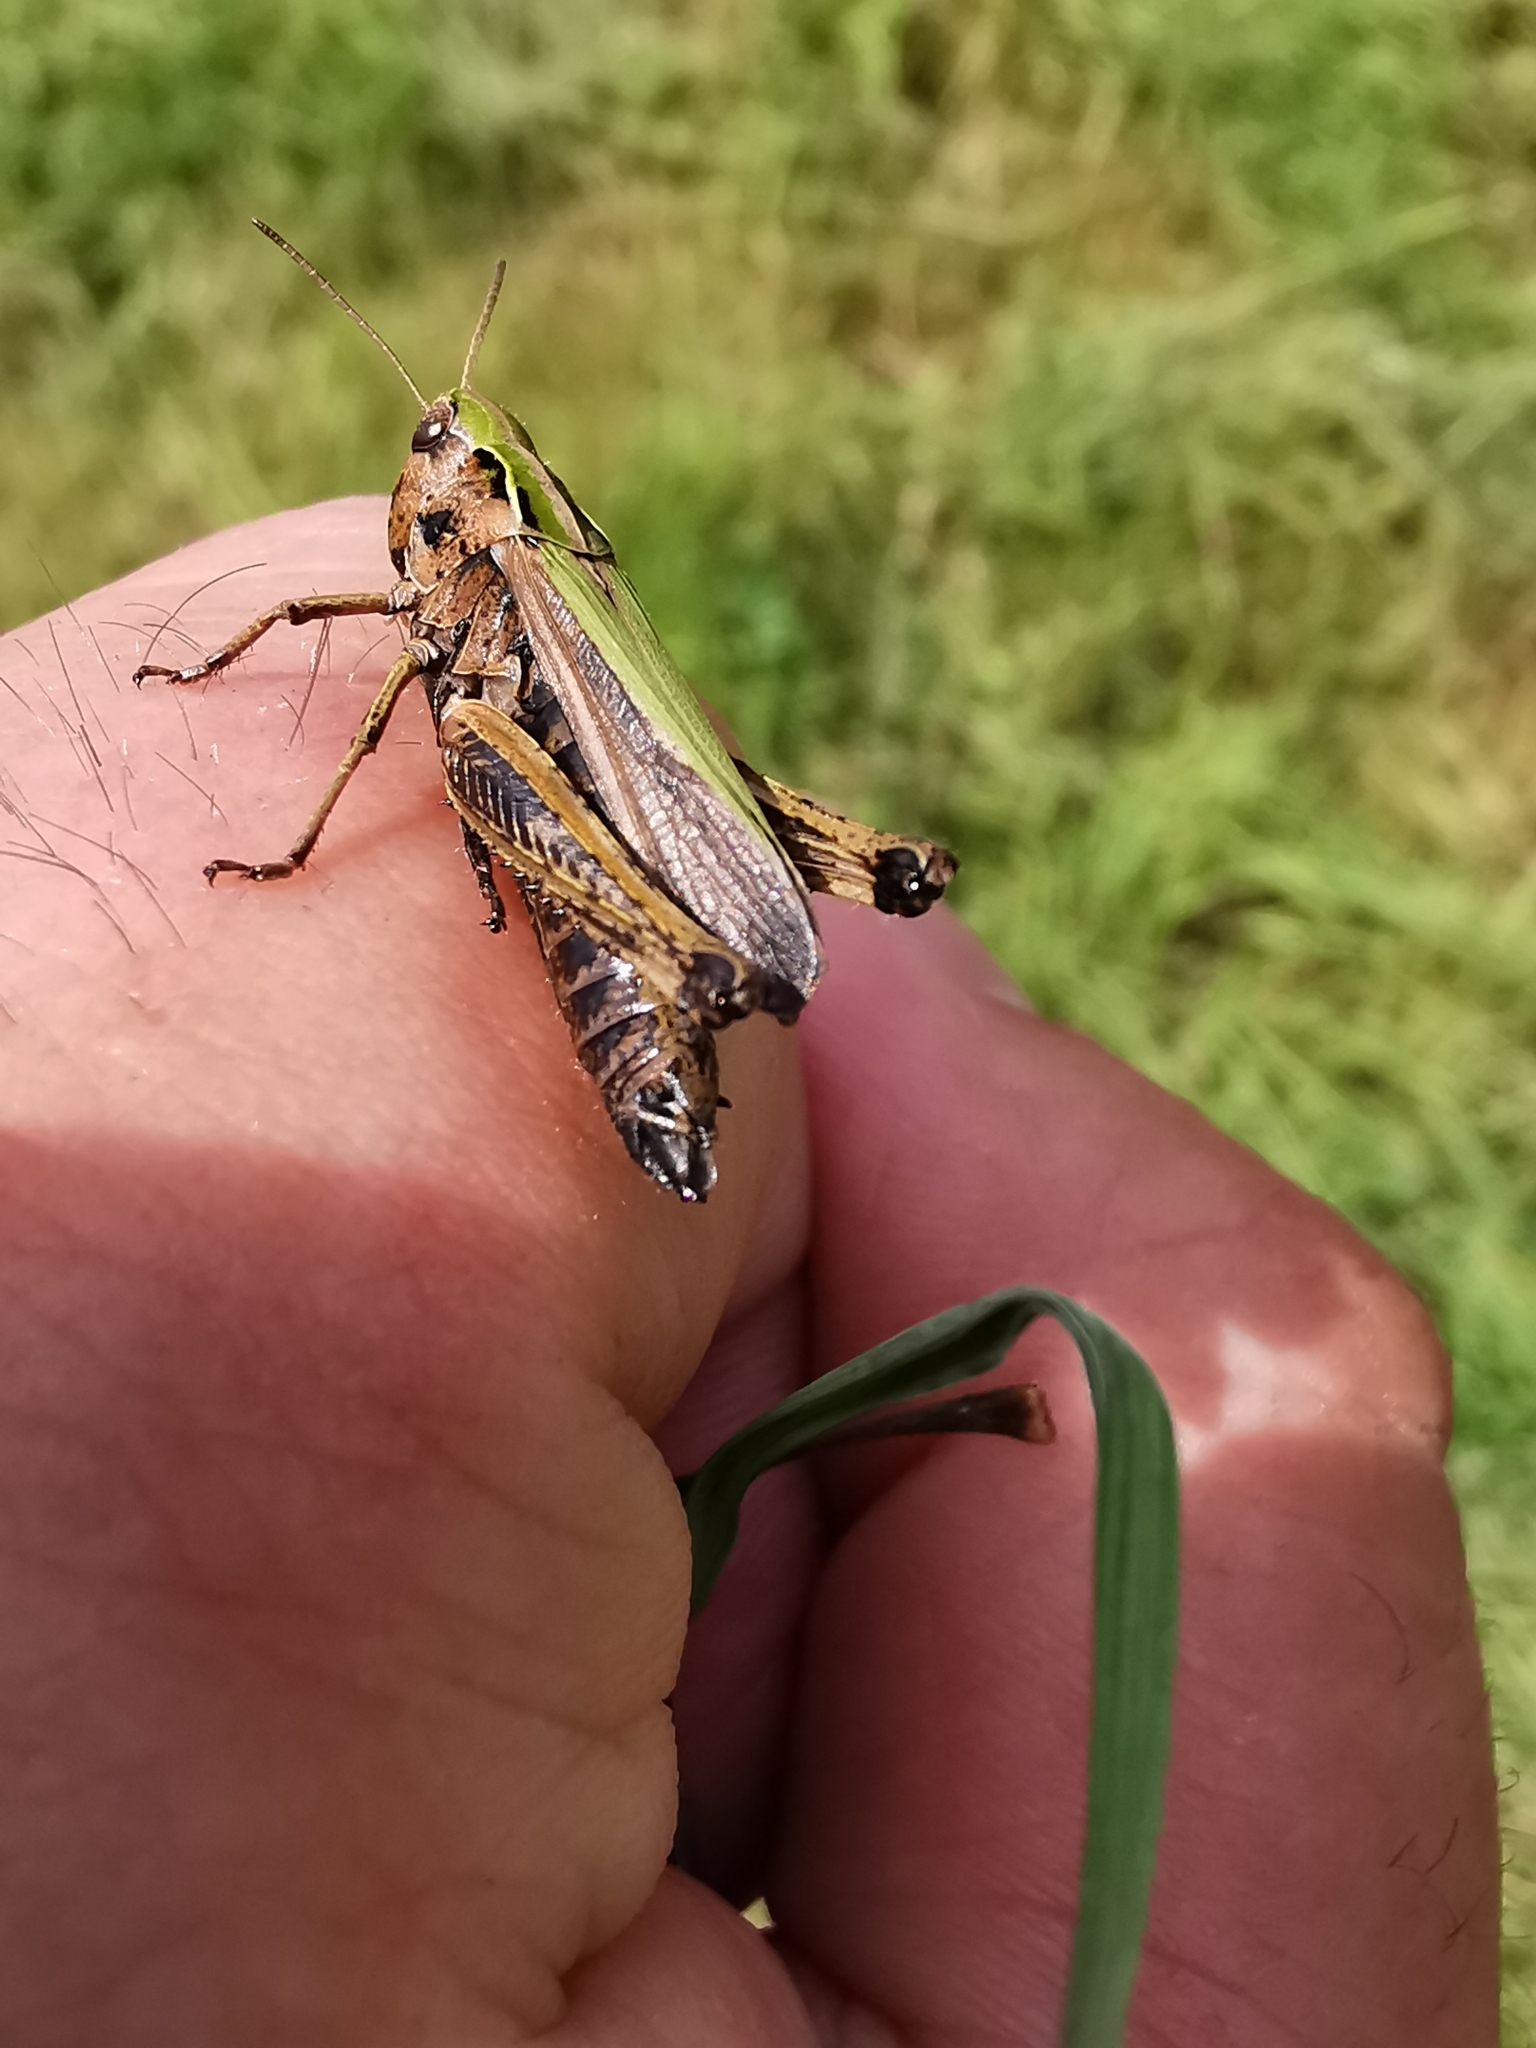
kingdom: Animalia
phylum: Arthropoda
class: Insecta
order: Orthoptera
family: Acrididae
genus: Omocestus
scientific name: Omocestus viridulus
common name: Common green grasshopper
